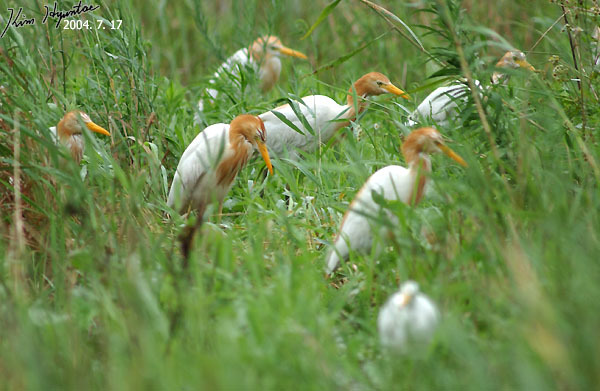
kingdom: Animalia
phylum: Chordata
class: Aves
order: Pelecaniformes
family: Ardeidae
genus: Bubulcus
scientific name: Bubulcus coromandus
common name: Eastern cattle egret
